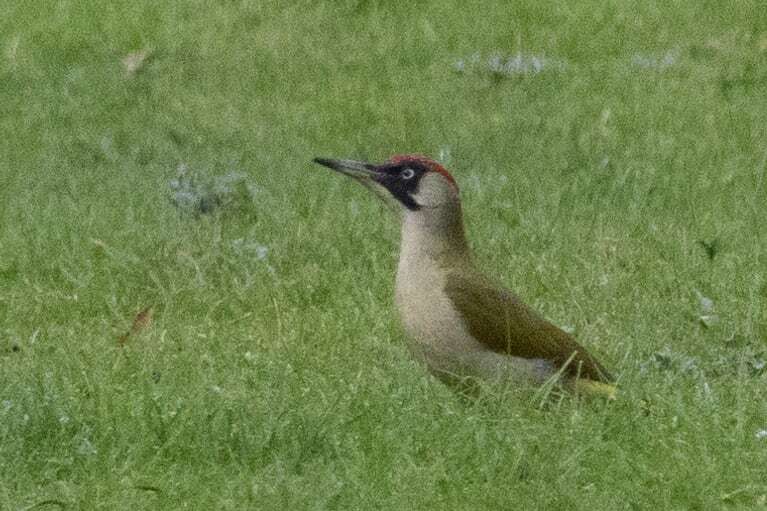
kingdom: Animalia
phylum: Chordata
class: Aves
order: Piciformes
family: Picidae
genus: Picus
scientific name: Picus viridis
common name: European green woodpecker
